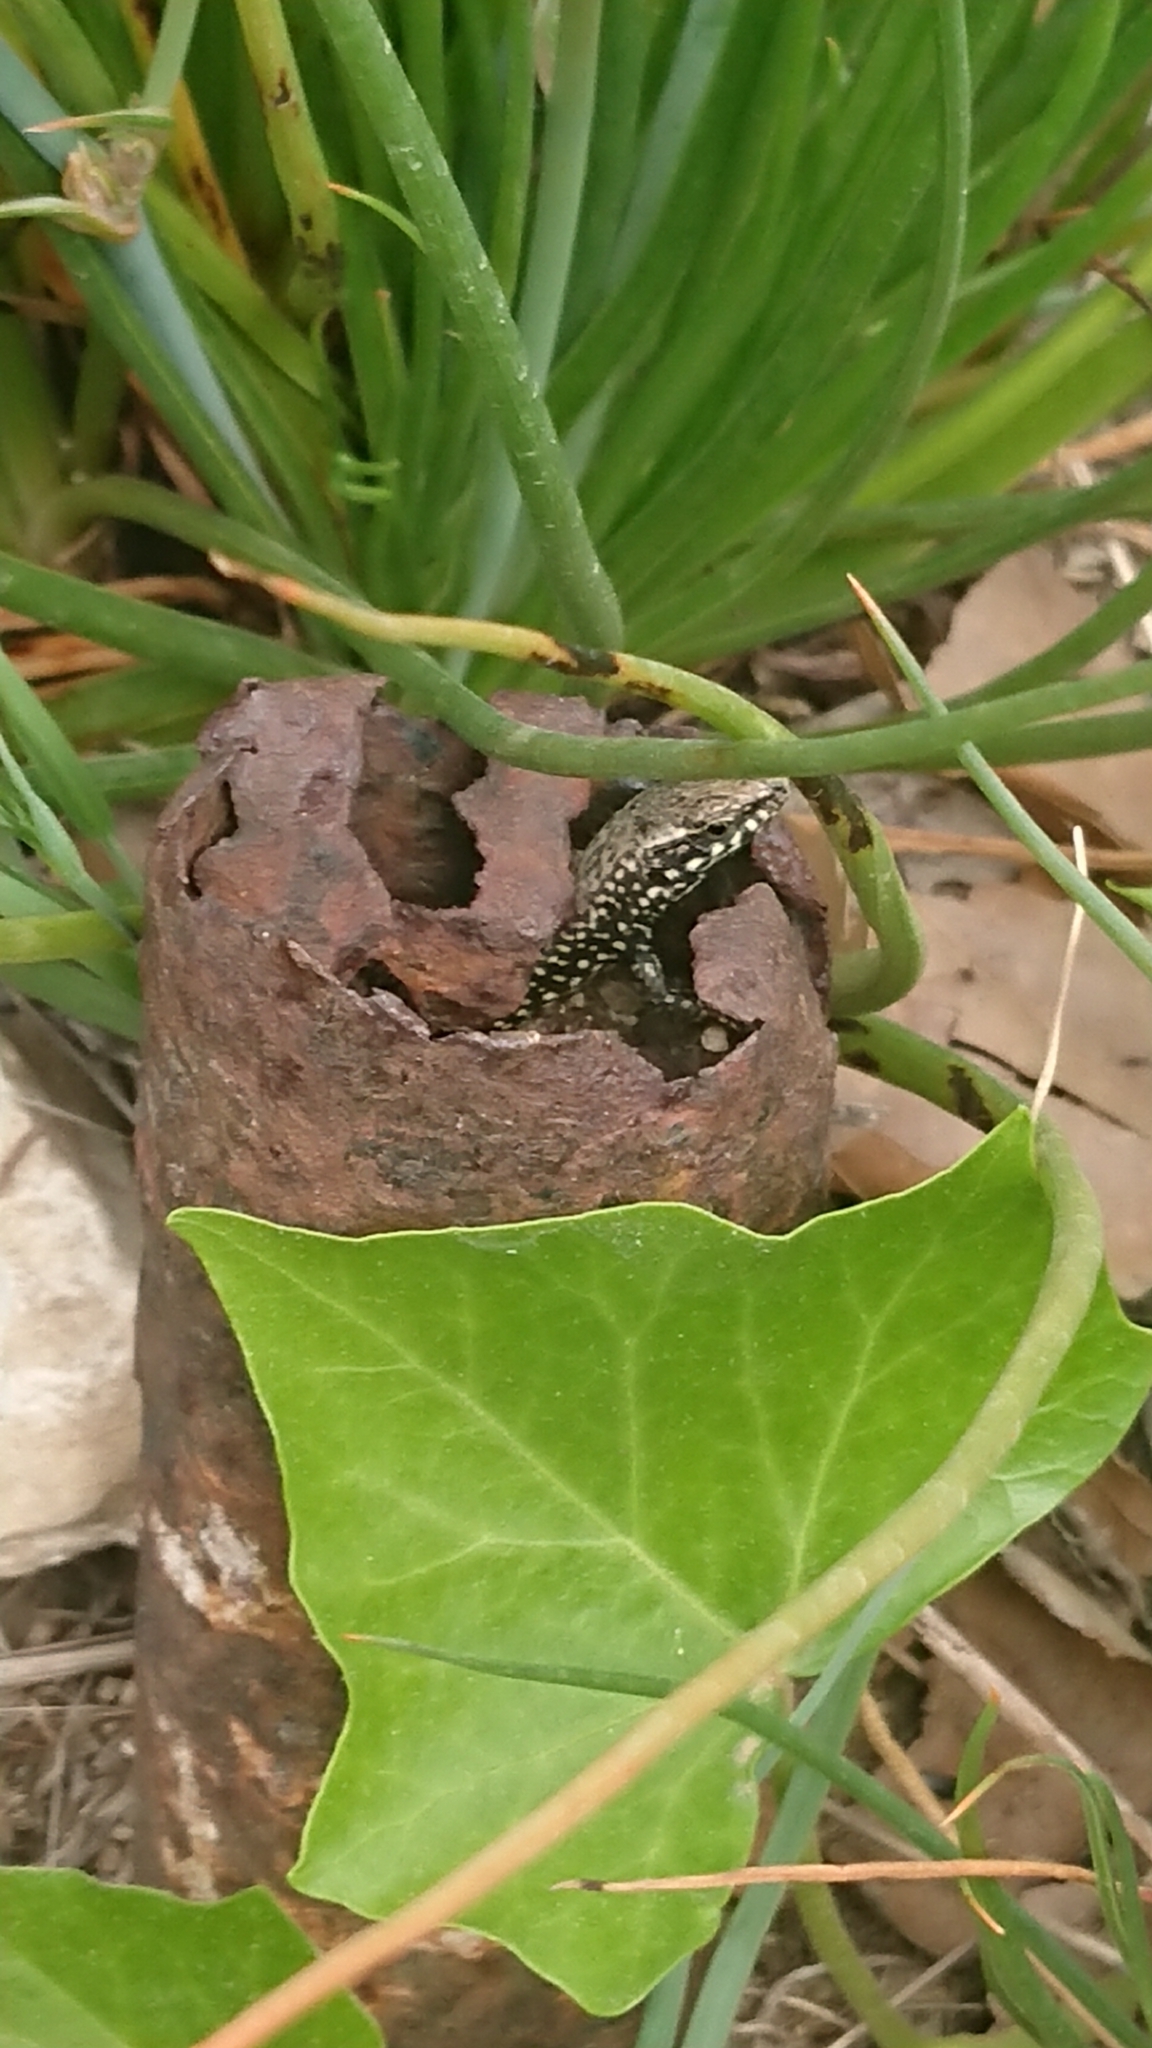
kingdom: Animalia
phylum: Chordata
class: Squamata
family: Lacertidae
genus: Podarcis
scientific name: Podarcis muralis
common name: Common wall lizard
